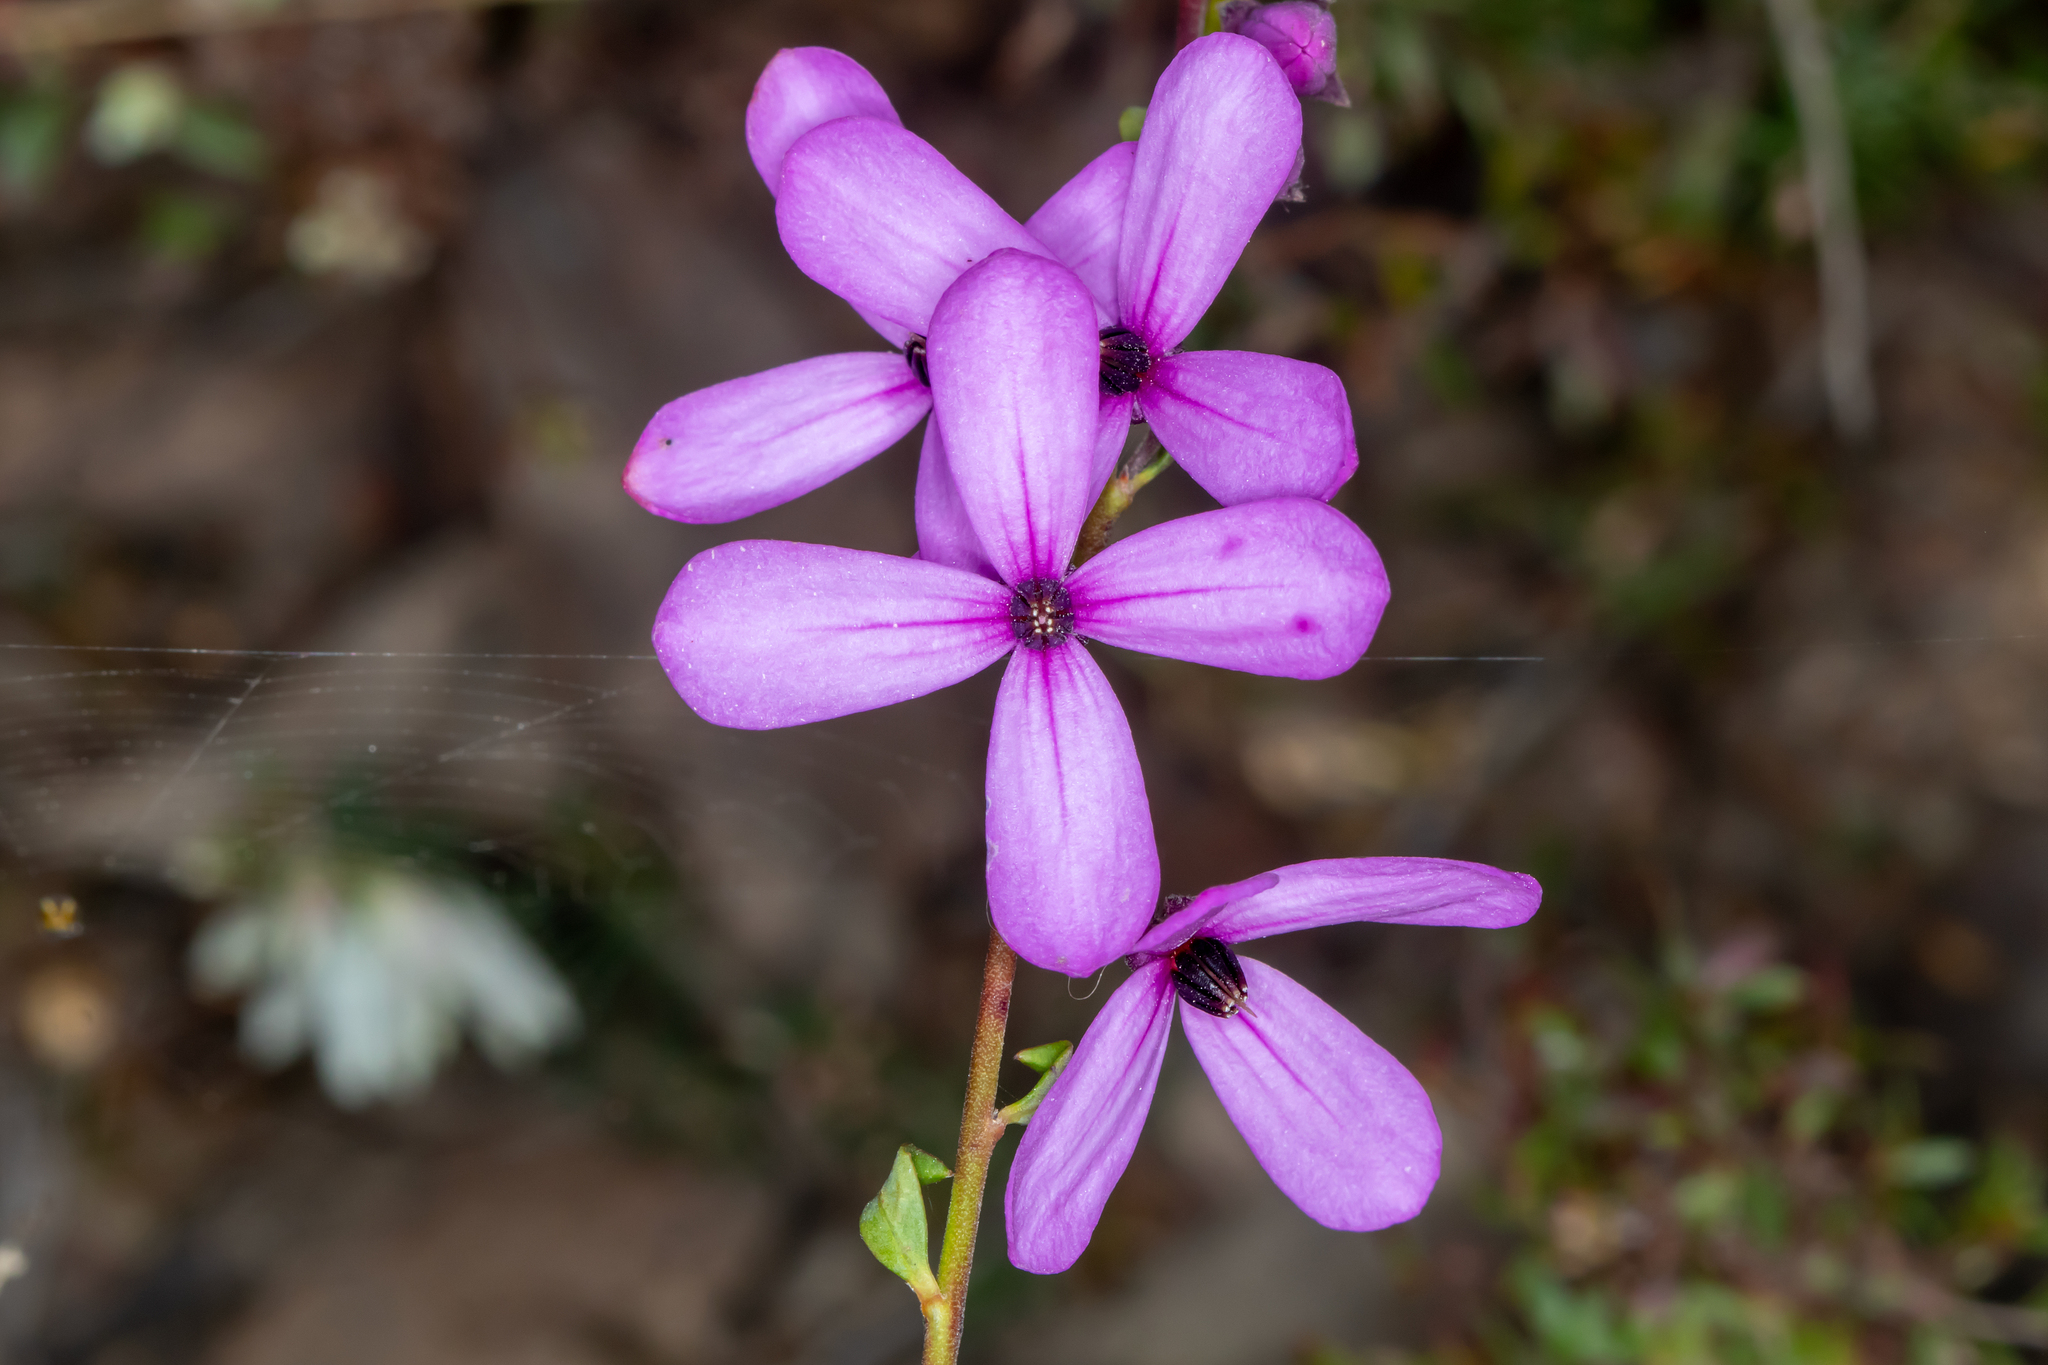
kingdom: Plantae
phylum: Tracheophyta
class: Magnoliopsida
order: Oxalidales
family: Elaeocarpaceae
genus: Tetratheca
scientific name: Tetratheca ciliata
